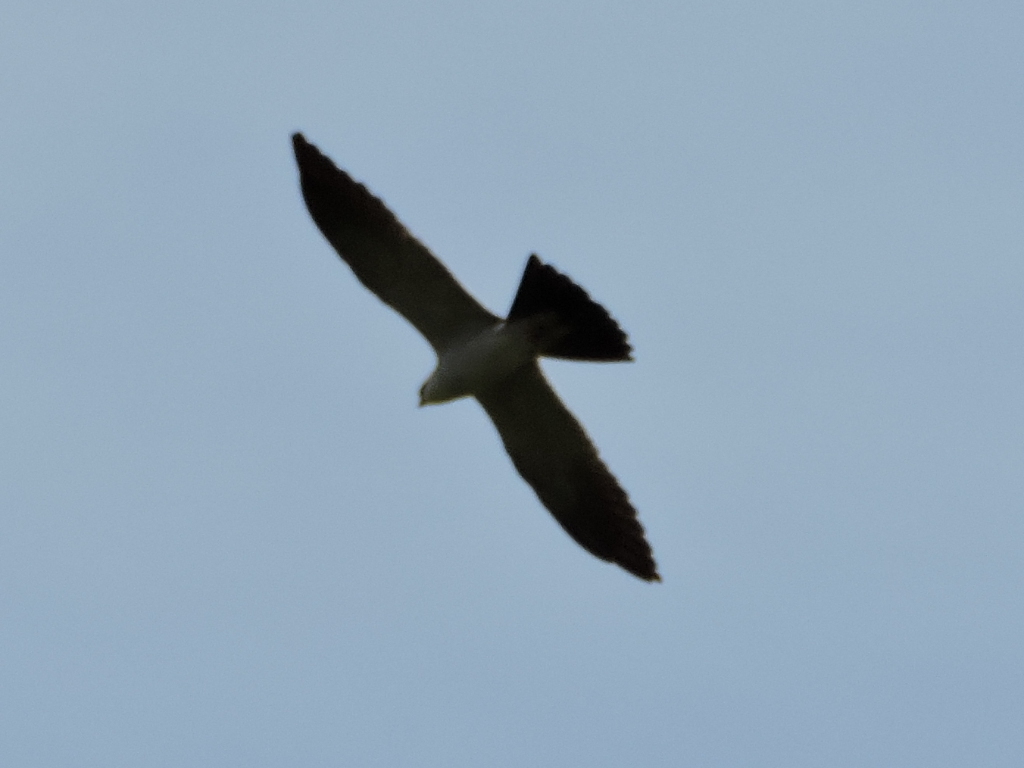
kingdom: Animalia
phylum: Chordata
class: Aves
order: Accipitriformes
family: Accipitridae
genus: Ictinia
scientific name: Ictinia mississippiensis
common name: Mississippi kite
